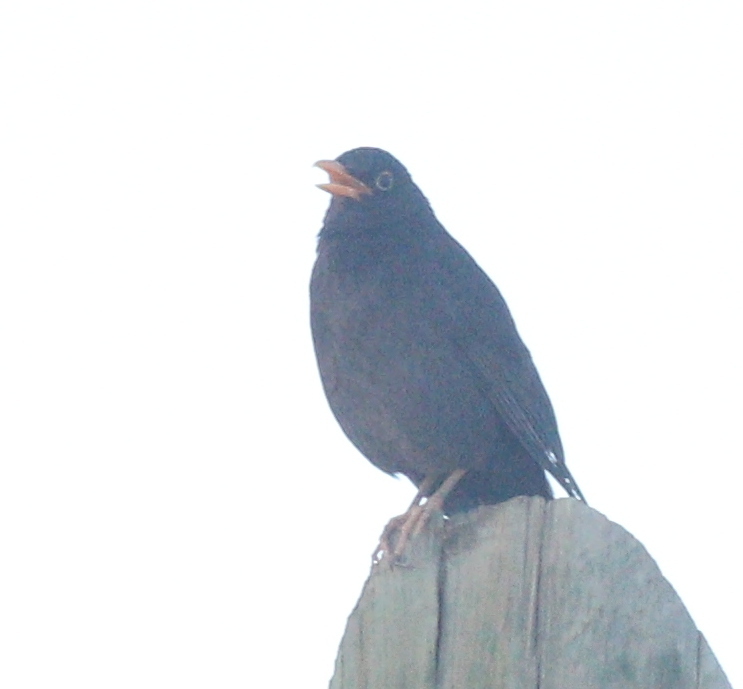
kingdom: Animalia
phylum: Chordata
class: Aves
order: Passeriformes
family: Turdidae
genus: Turdus
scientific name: Turdus chiguanco
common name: Chiguanco thrush
